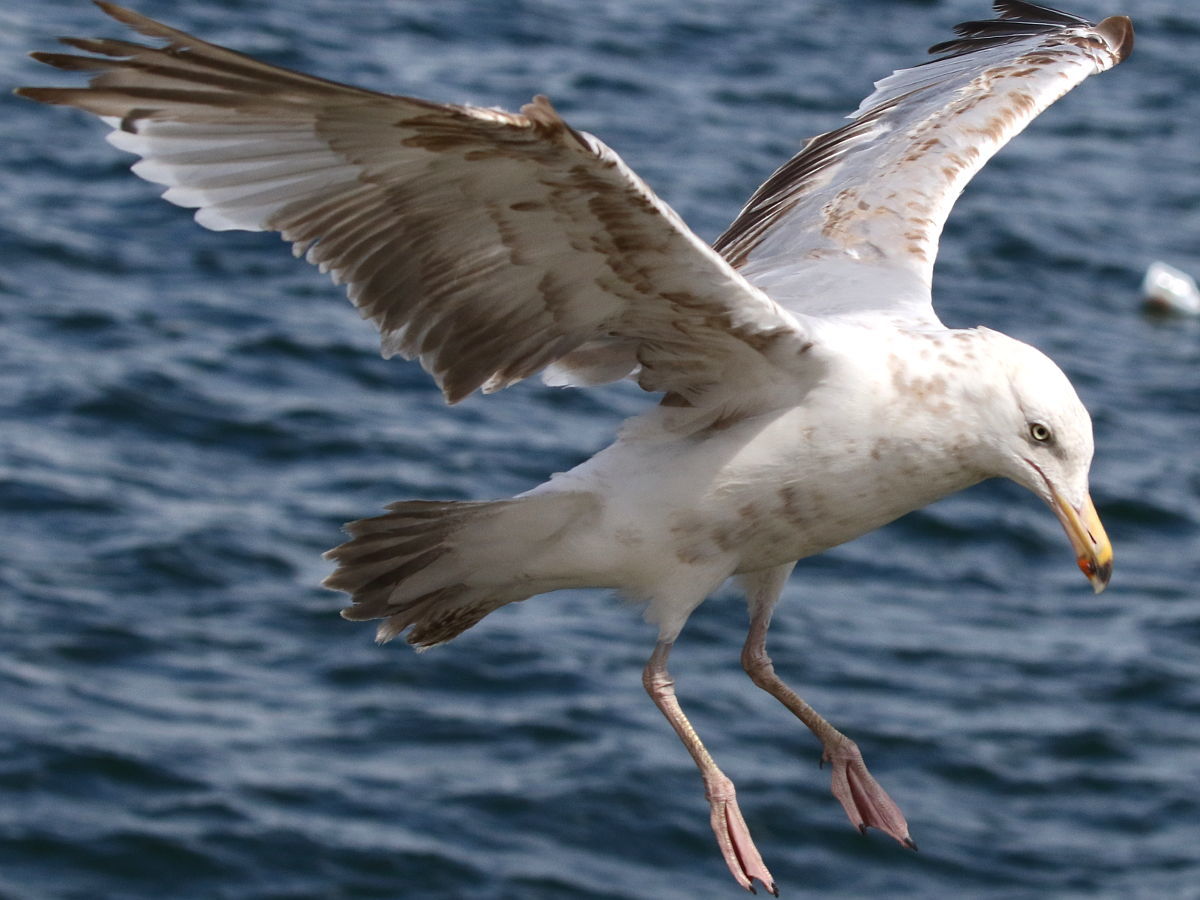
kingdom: Animalia
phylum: Chordata
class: Aves
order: Charadriiformes
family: Laridae
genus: Larus
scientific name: Larus argentatus
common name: Herring gull
